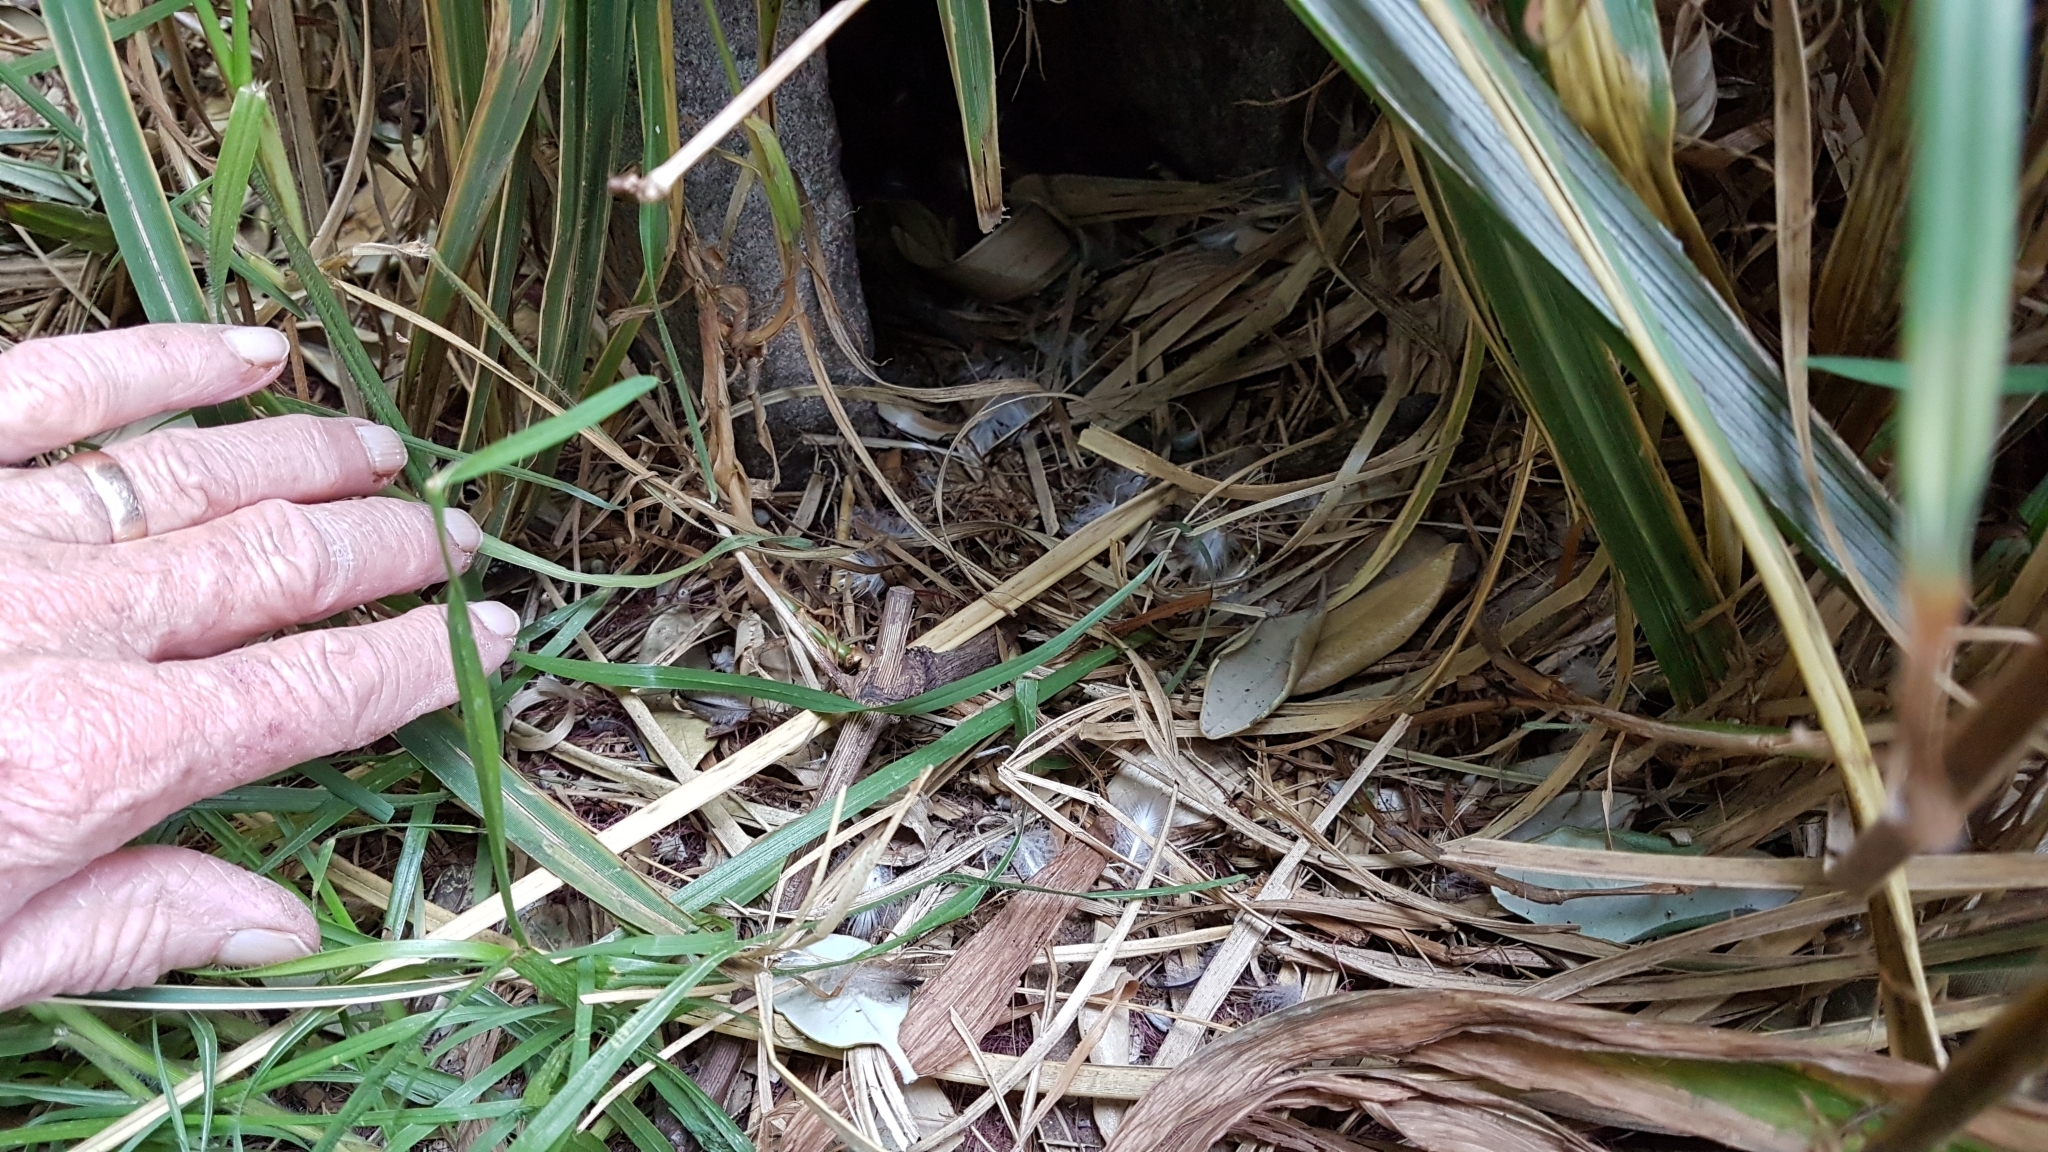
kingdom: Animalia
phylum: Chordata
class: Aves
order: Sphenisciformes
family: Spheniscidae
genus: Eudyptula
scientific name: Eudyptula minor
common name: Little penguin
